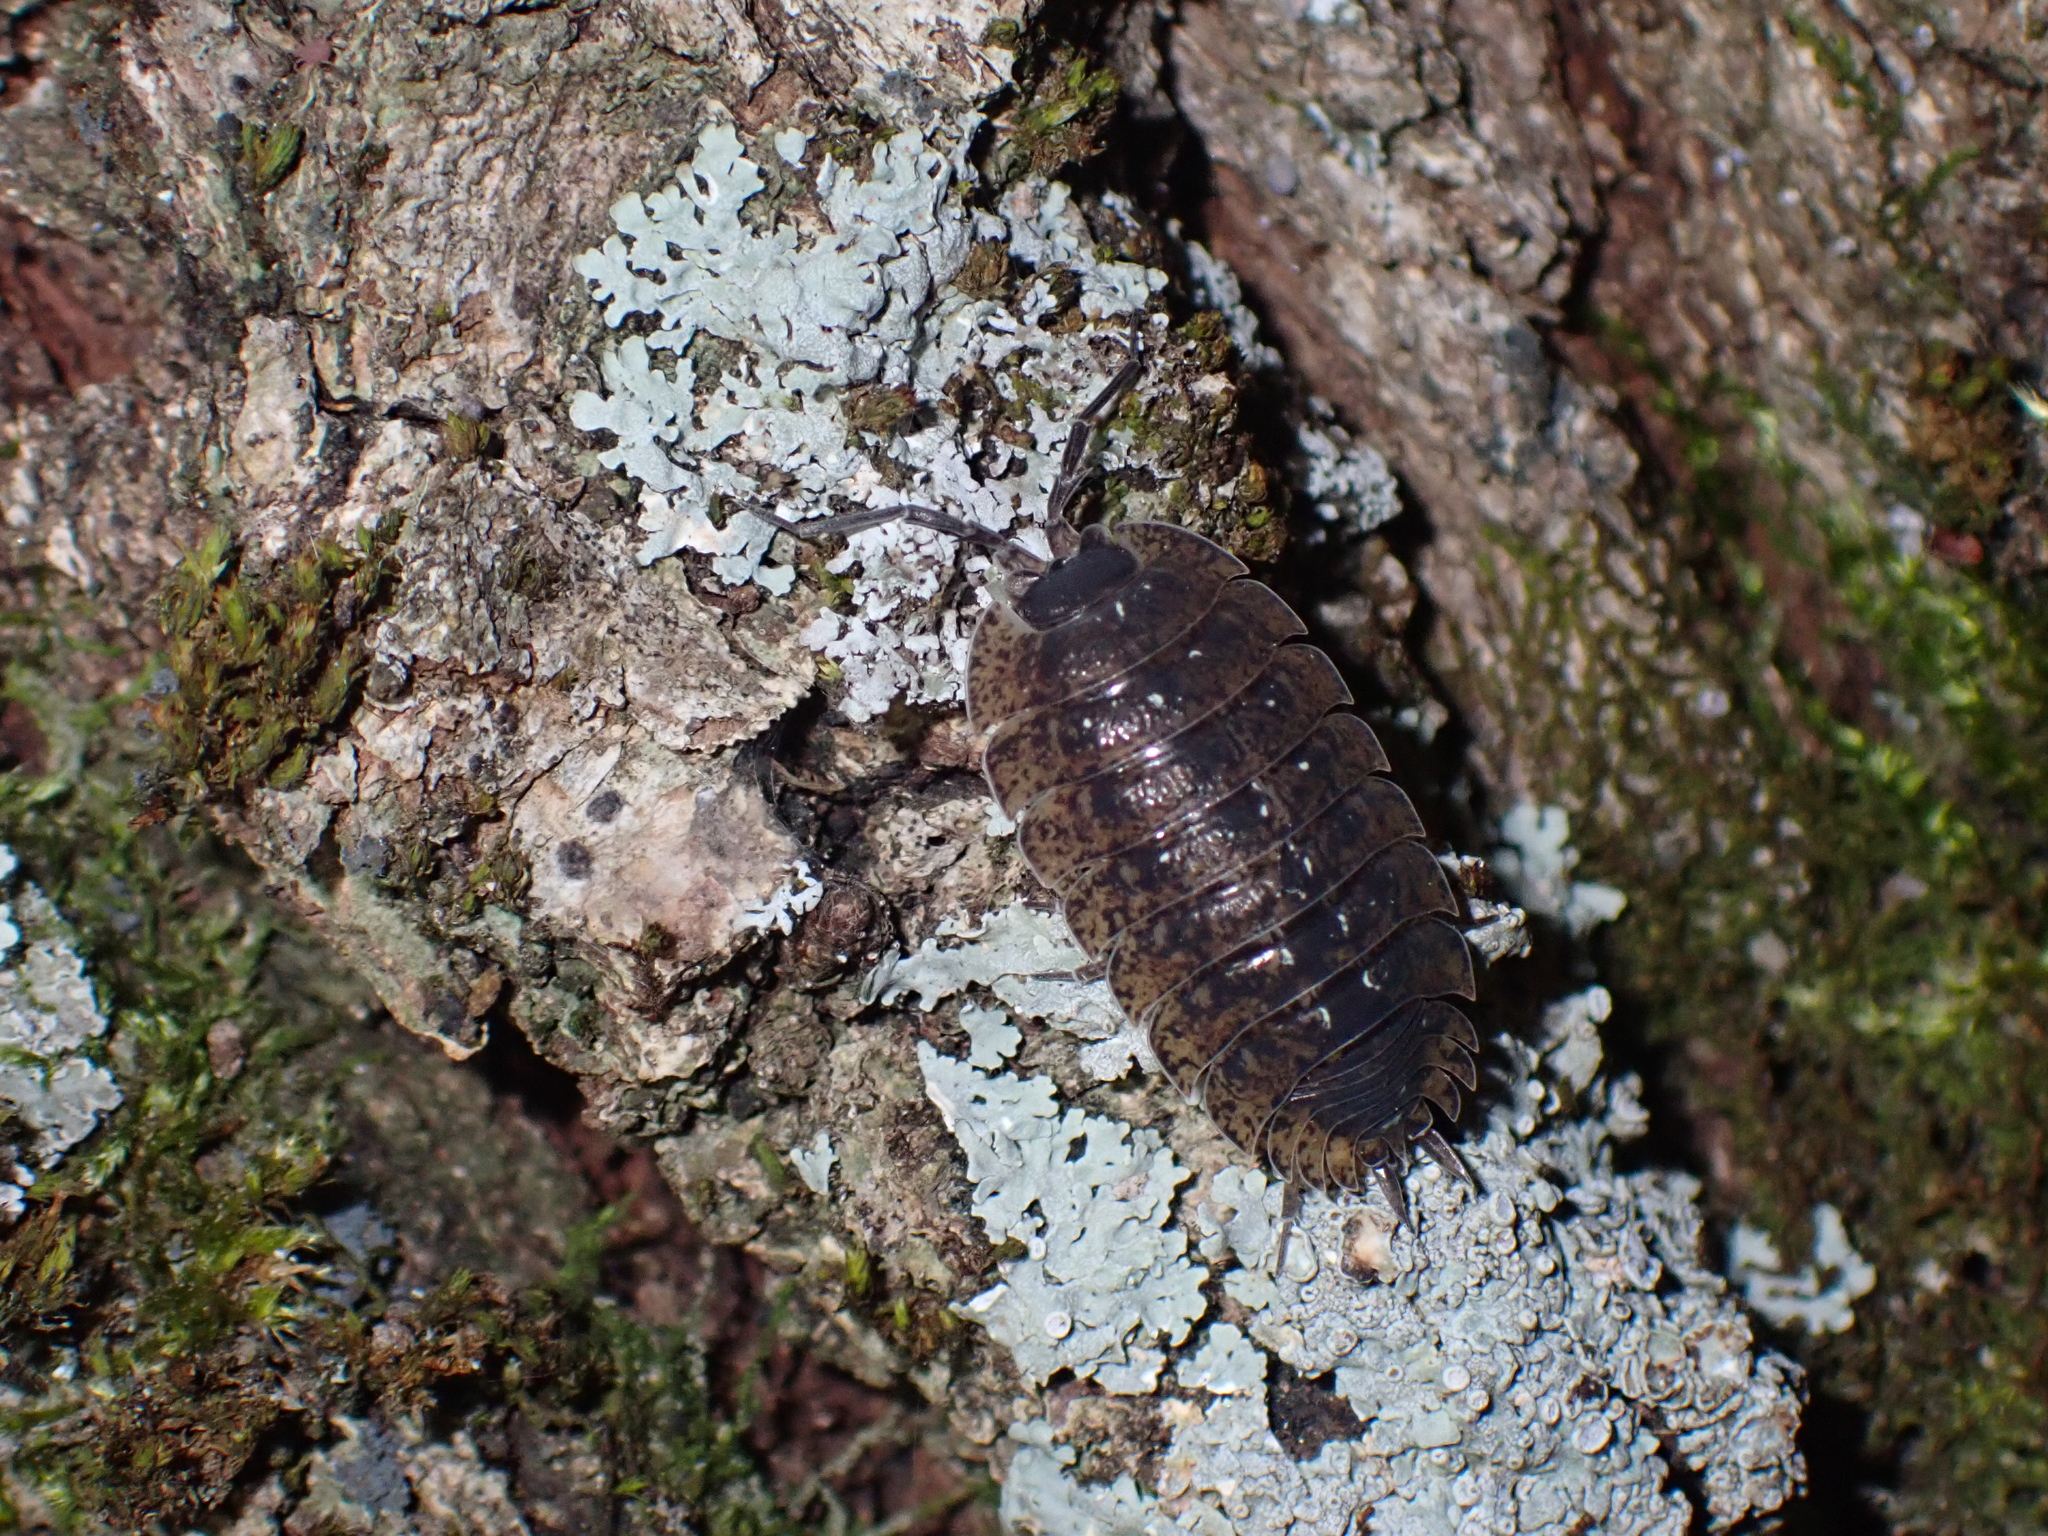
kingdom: Animalia
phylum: Arthropoda
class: Malacostraca
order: Isopoda
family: Porcellionidae
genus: Porcellio
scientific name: Porcellio spinipennis
